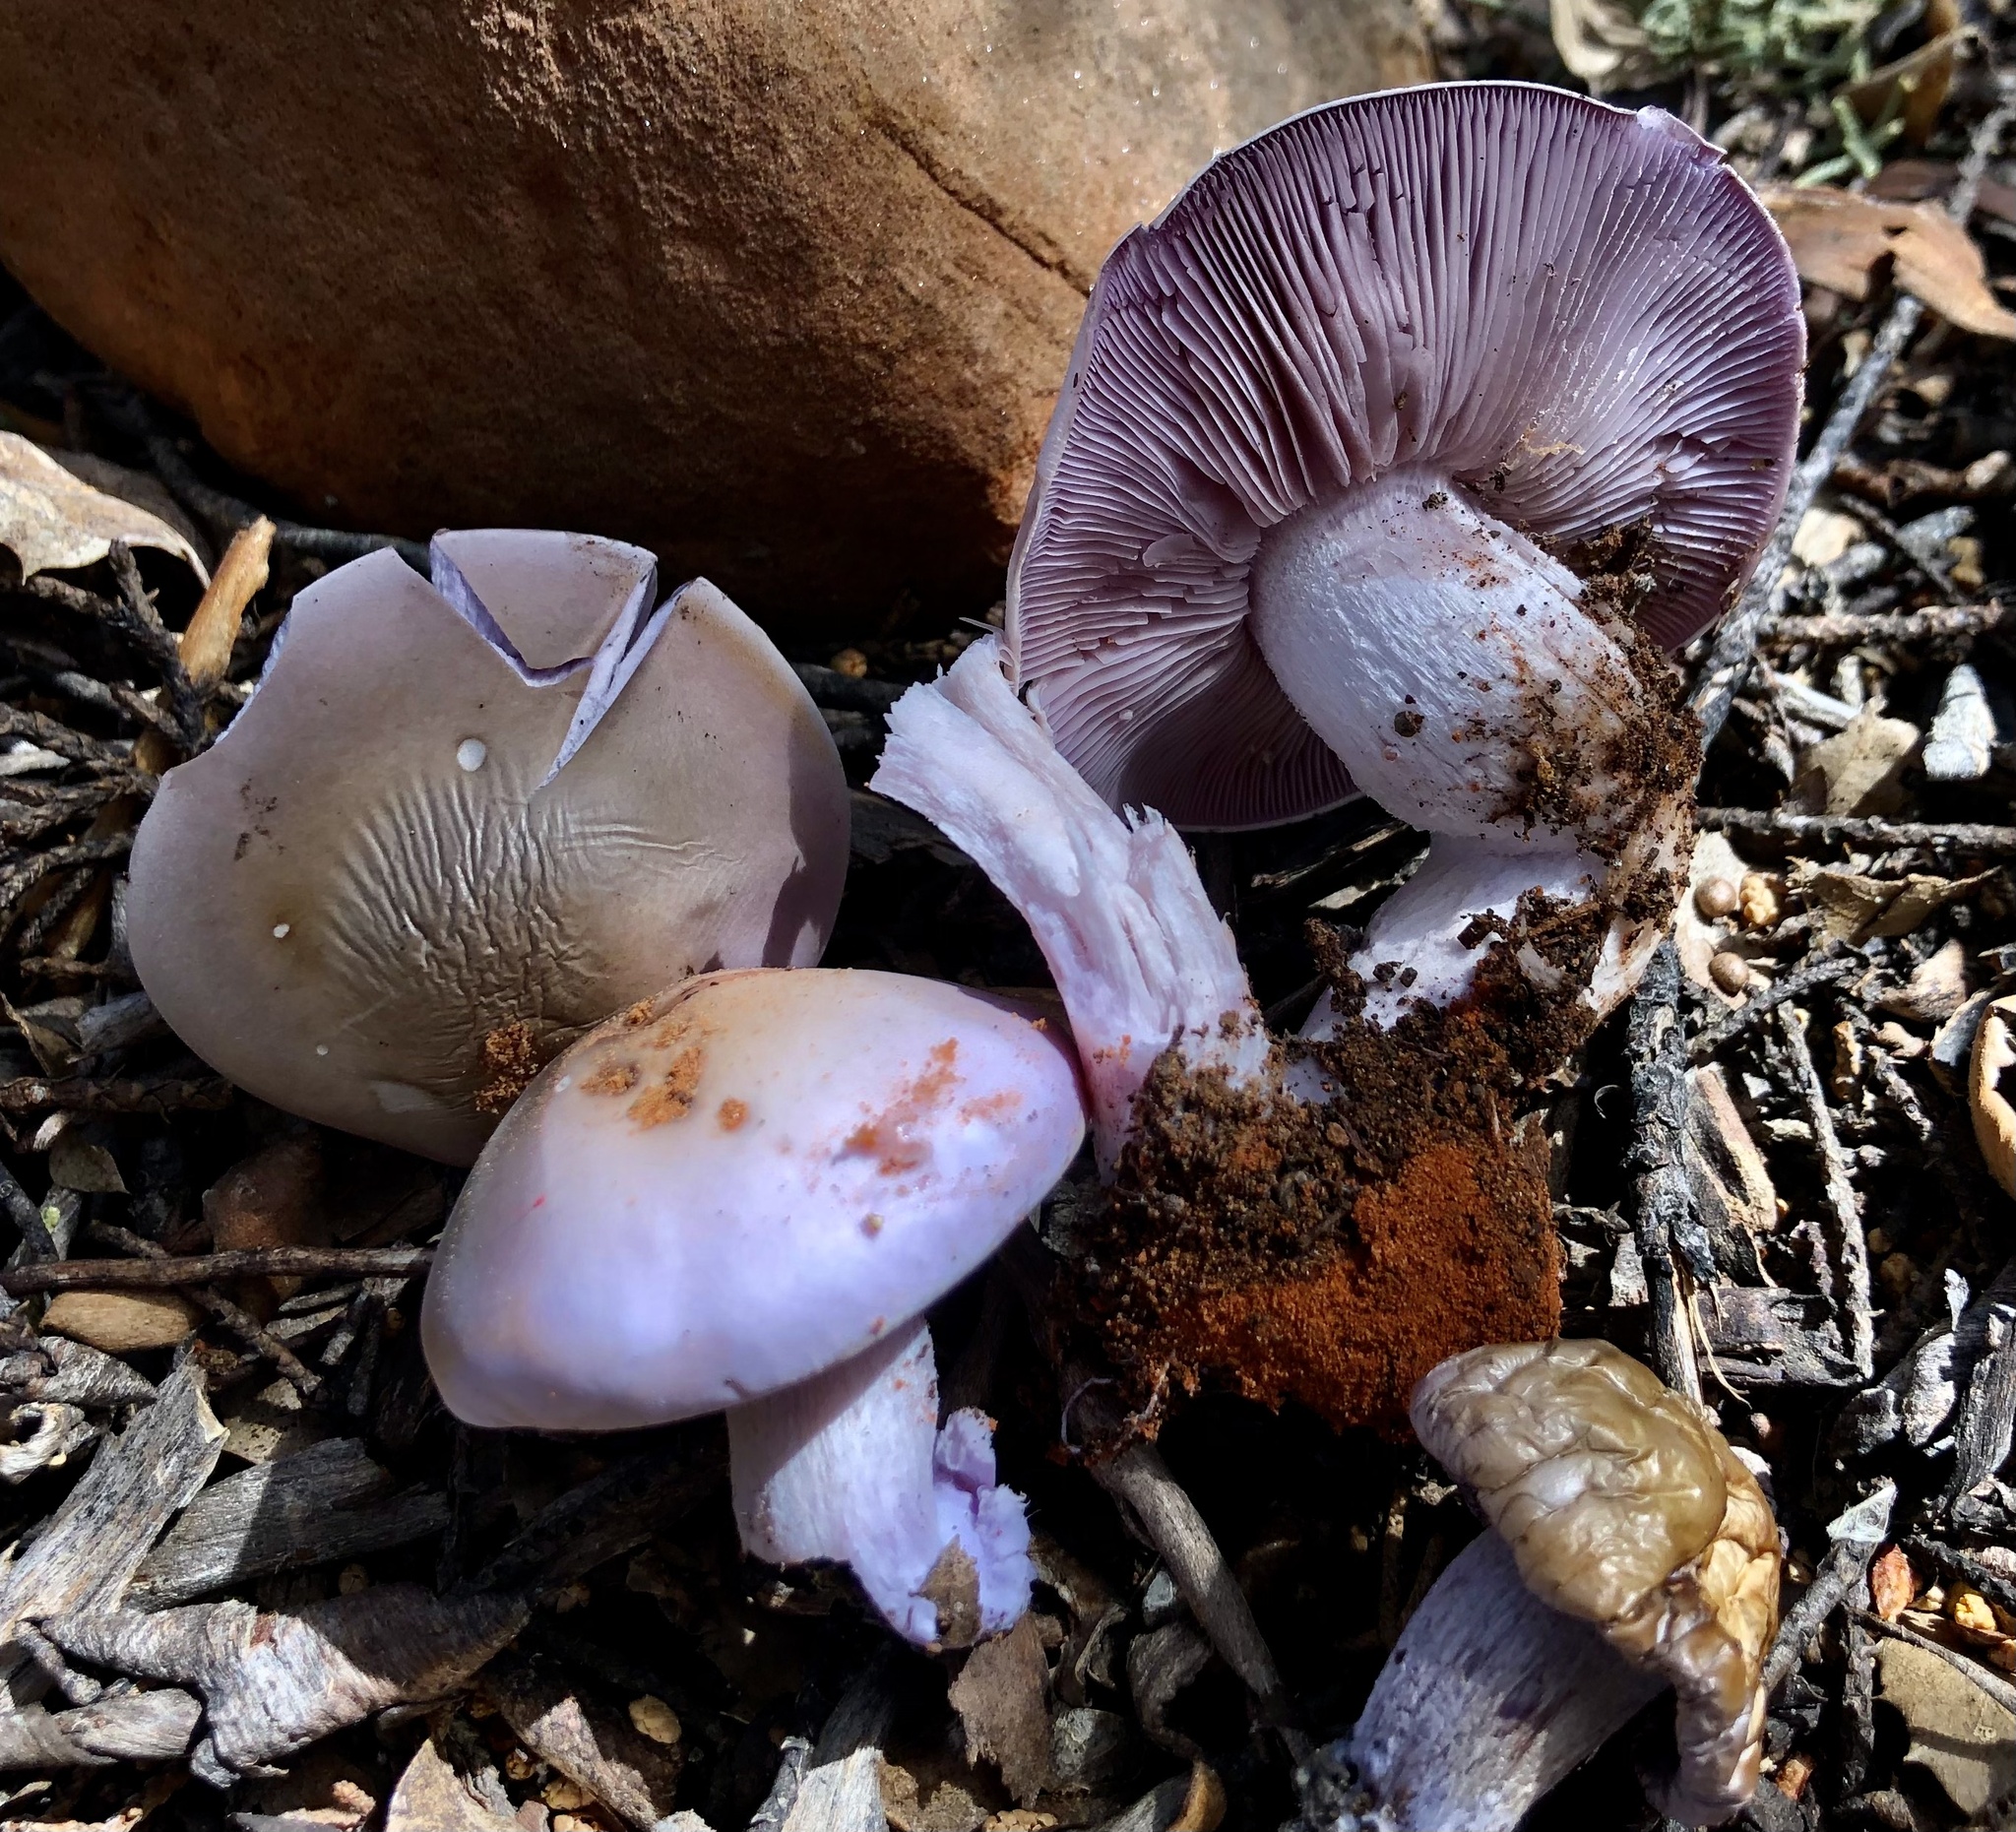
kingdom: Fungi
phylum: Basidiomycota
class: Agaricomycetes
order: Agaricales
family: Tricholomataceae
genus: Clitocybe
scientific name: Clitocybe violaceifolia
